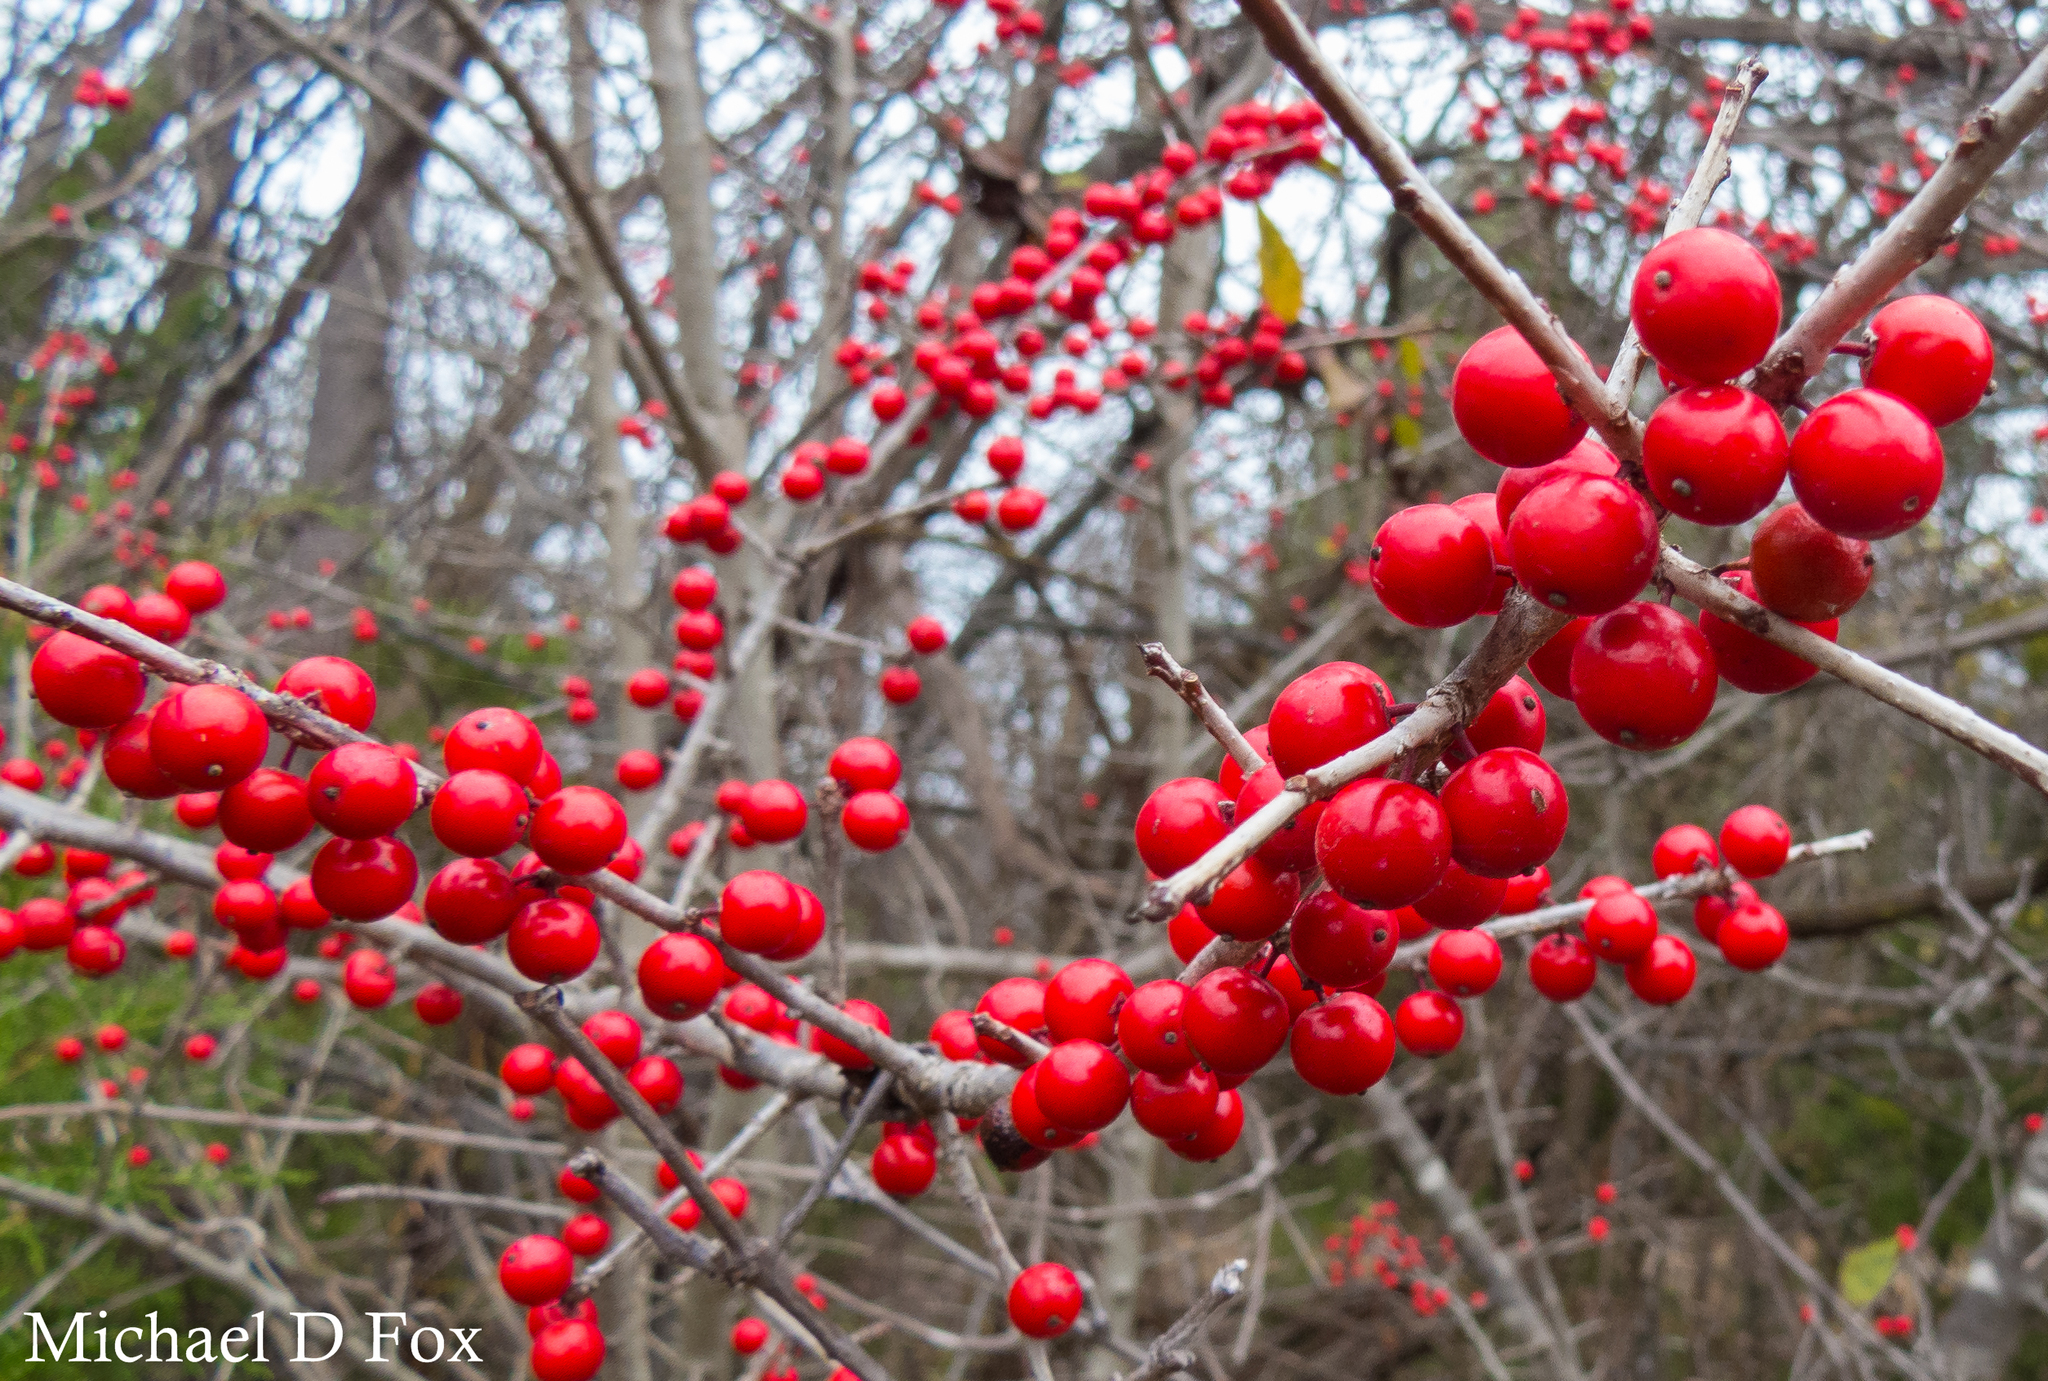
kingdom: Plantae
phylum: Tracheophyta
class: Magnoliopsida
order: Aquifoliales
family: Aquifoliaceae
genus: Ilex
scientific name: Ilex decidua
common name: Possum-haw
